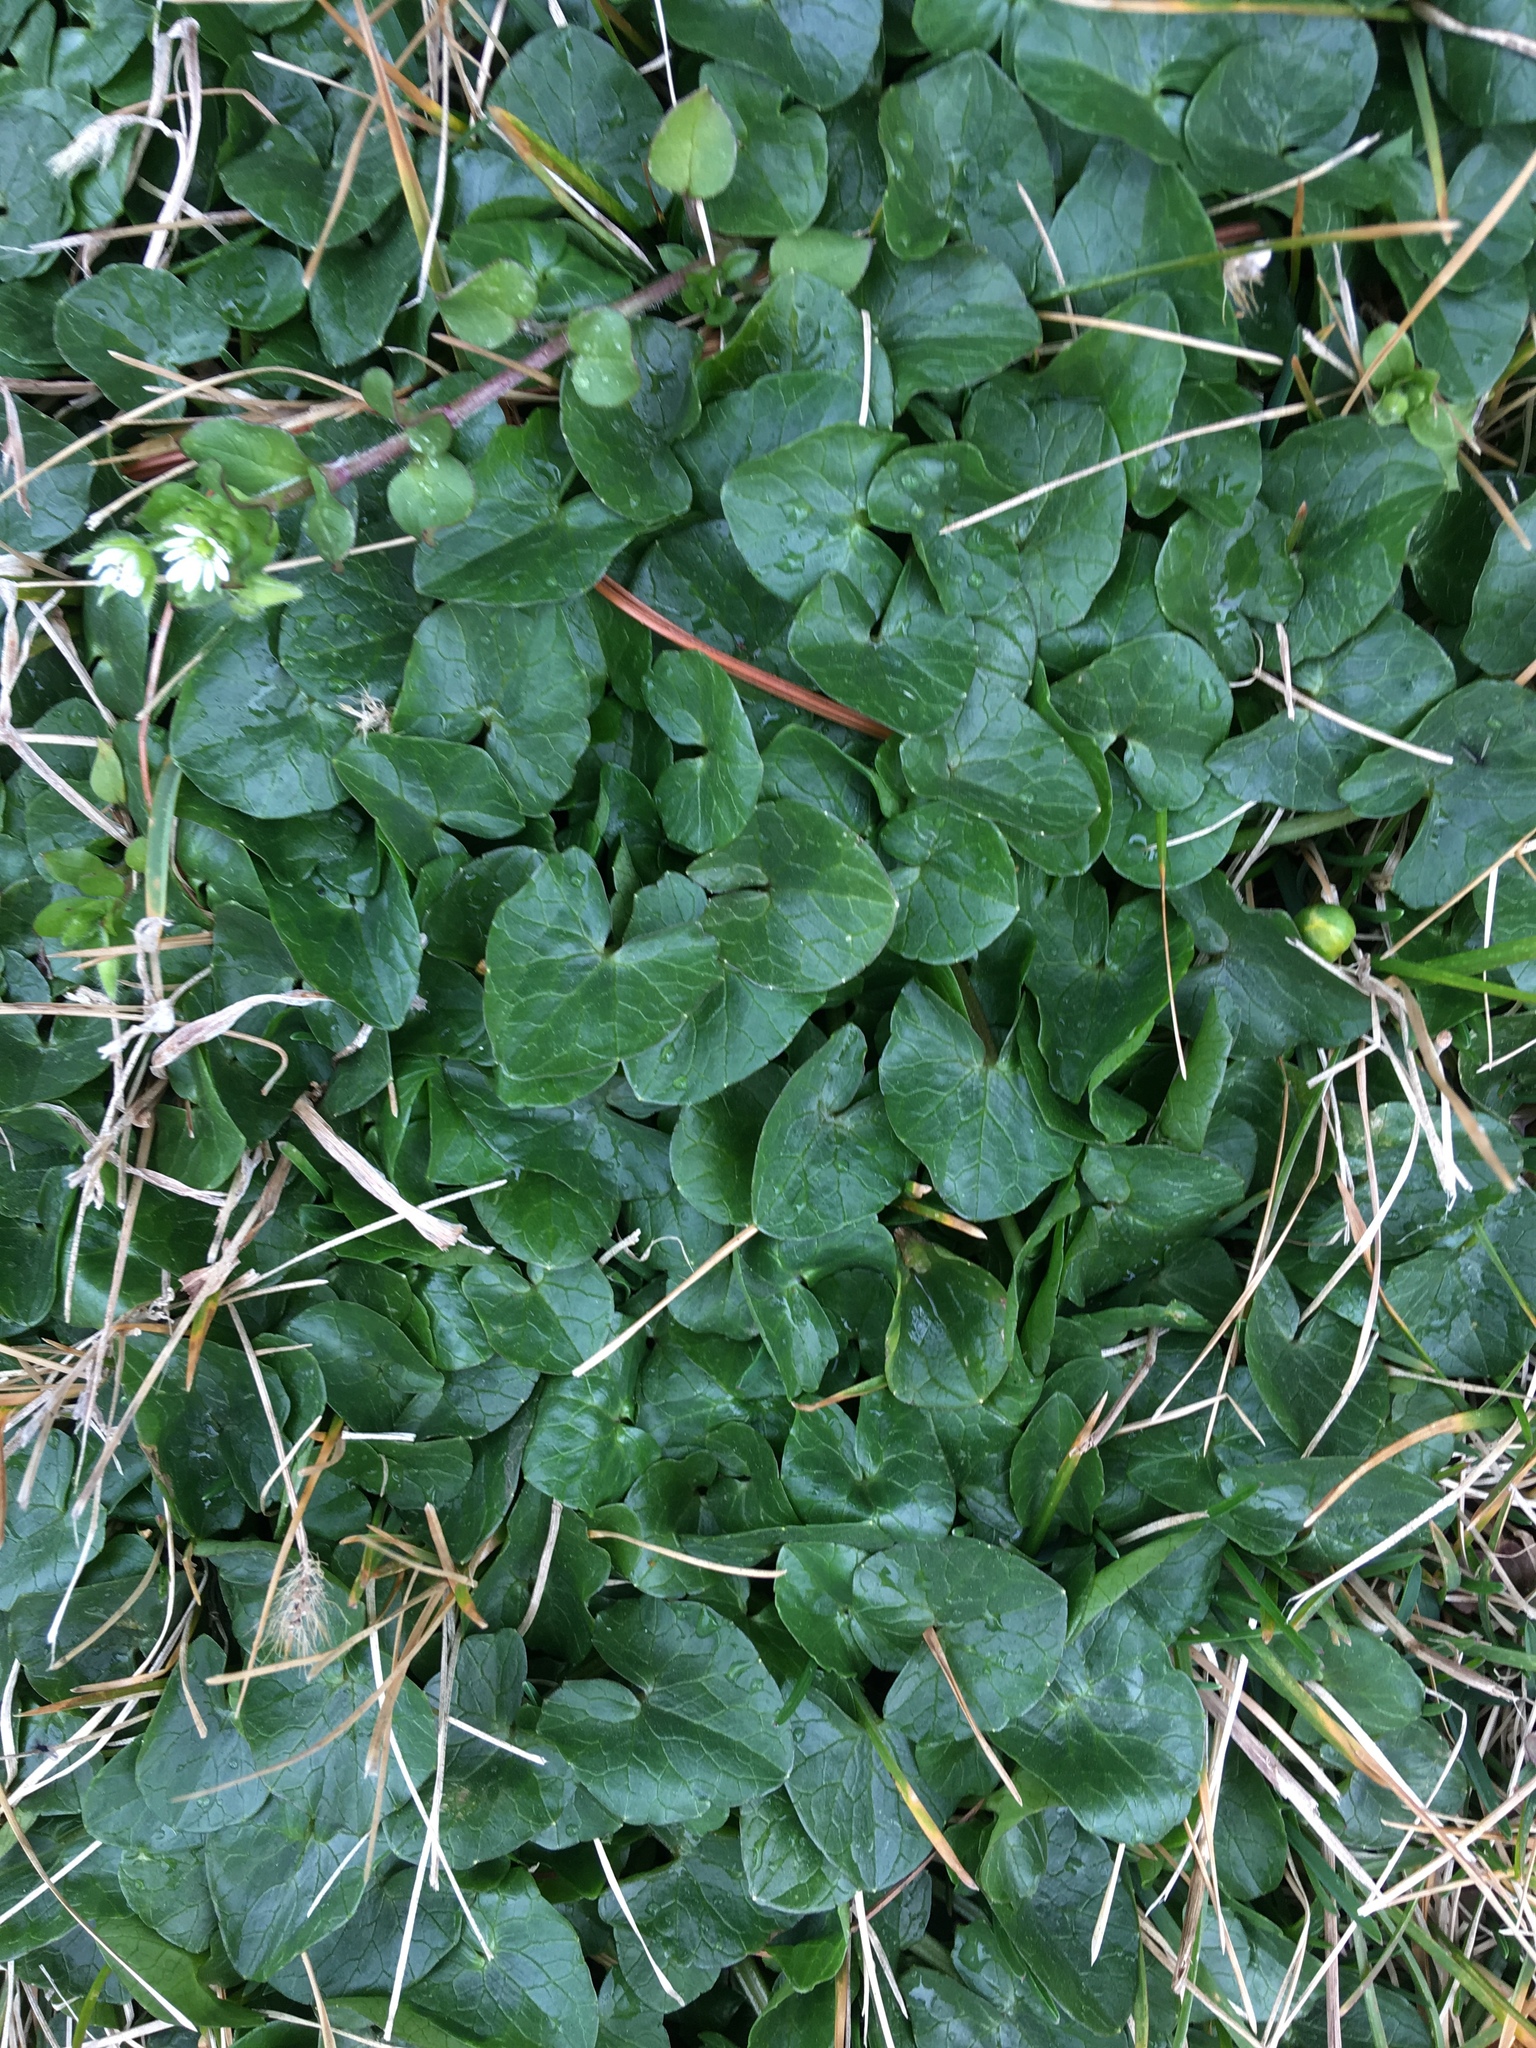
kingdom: Plantae
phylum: Tracheophyta
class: Magnoliopsida
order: Ranunculales
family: Ranunculaceae
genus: Ficaria
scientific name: Ficaria verna
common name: Lesser celandine
